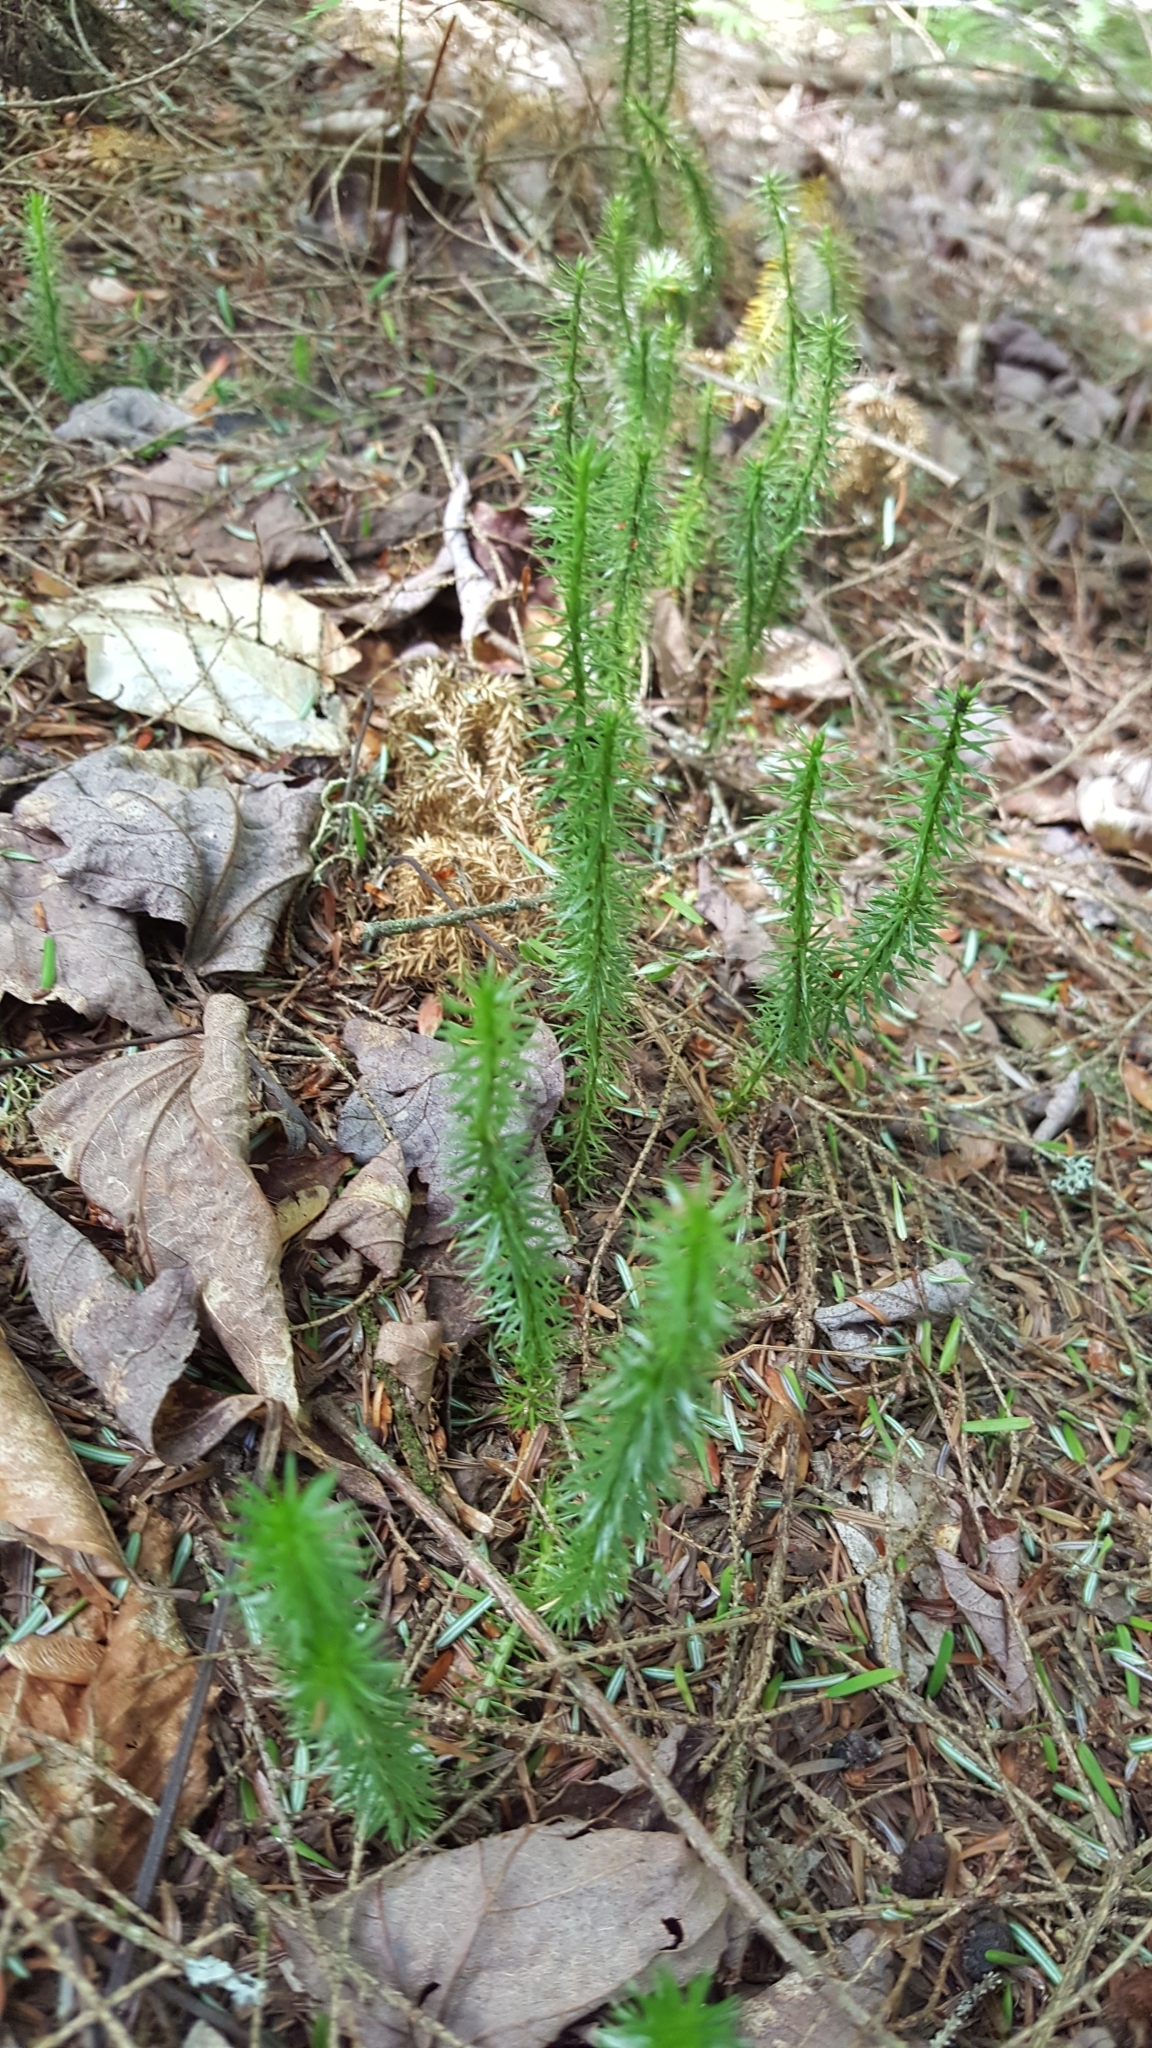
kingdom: Plantae
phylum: Tracheophyta
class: Lycopodiopsida
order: Lycopodiales
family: Lycopodiaceae
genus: Spinulum
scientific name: Spinulum annotinum
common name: Interrupted club-moss
